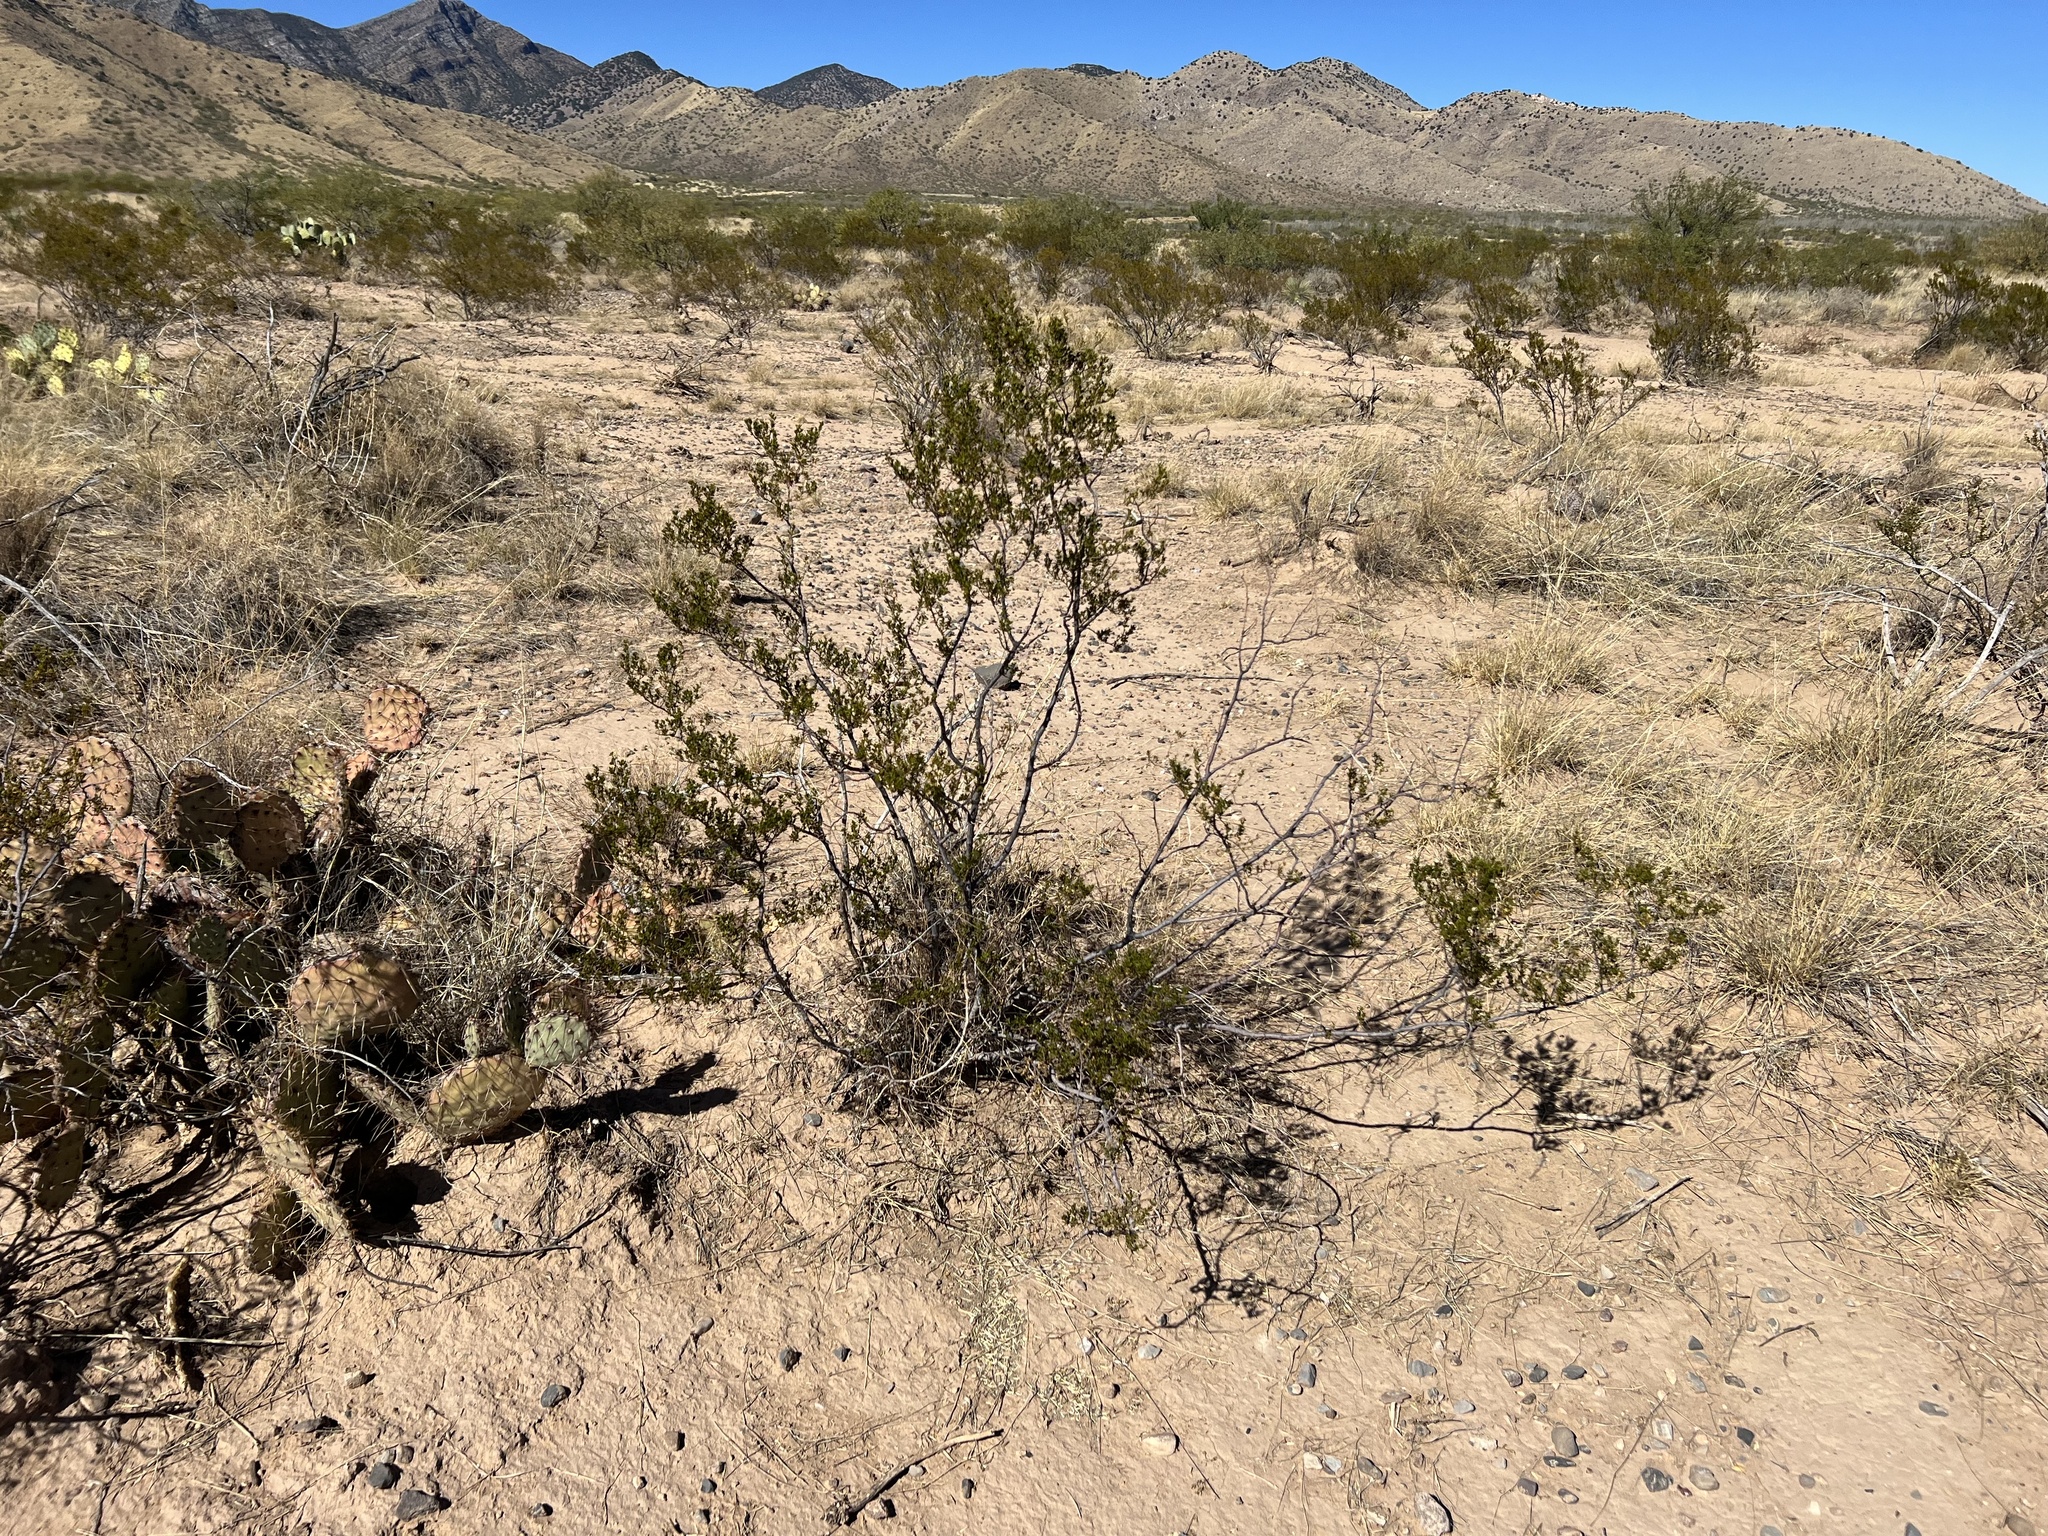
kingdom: Plantae
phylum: Tracheophyta
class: Magnoliopsida
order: Zygophyllales
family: Zygophyllaceae
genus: Larrea
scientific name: Larrea tridentata
